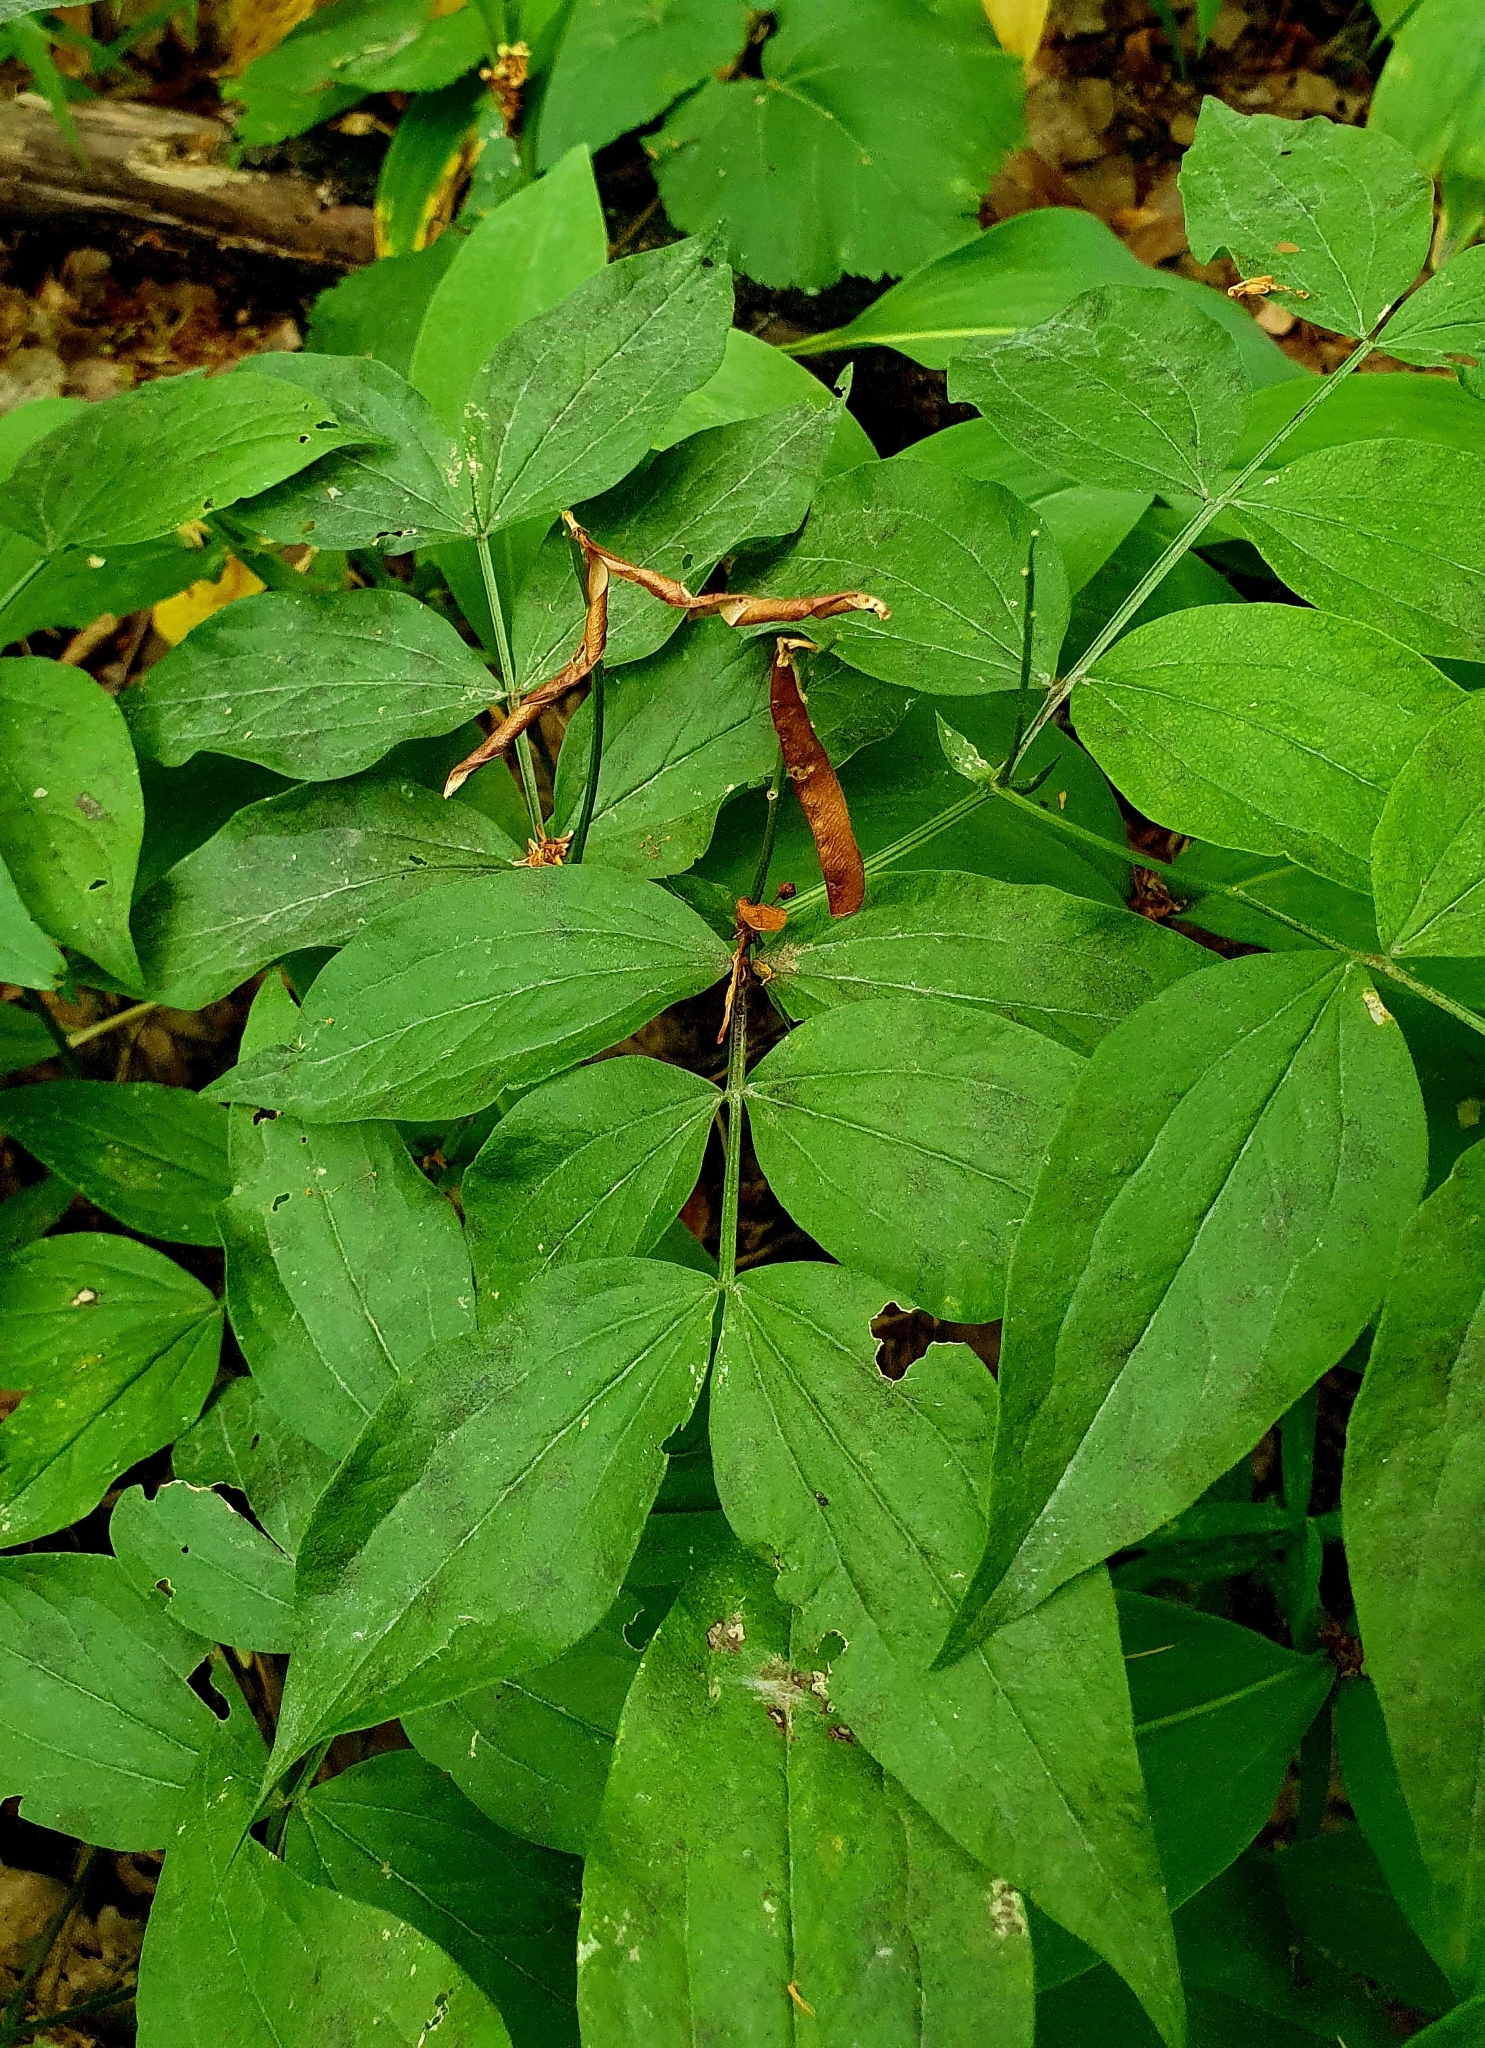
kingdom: Plantae
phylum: Tracheophyta
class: Magnoliopsida
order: Fabales
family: Fabaceae
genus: Lathyrus
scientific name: Lathyrus vernus
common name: Spring pea
